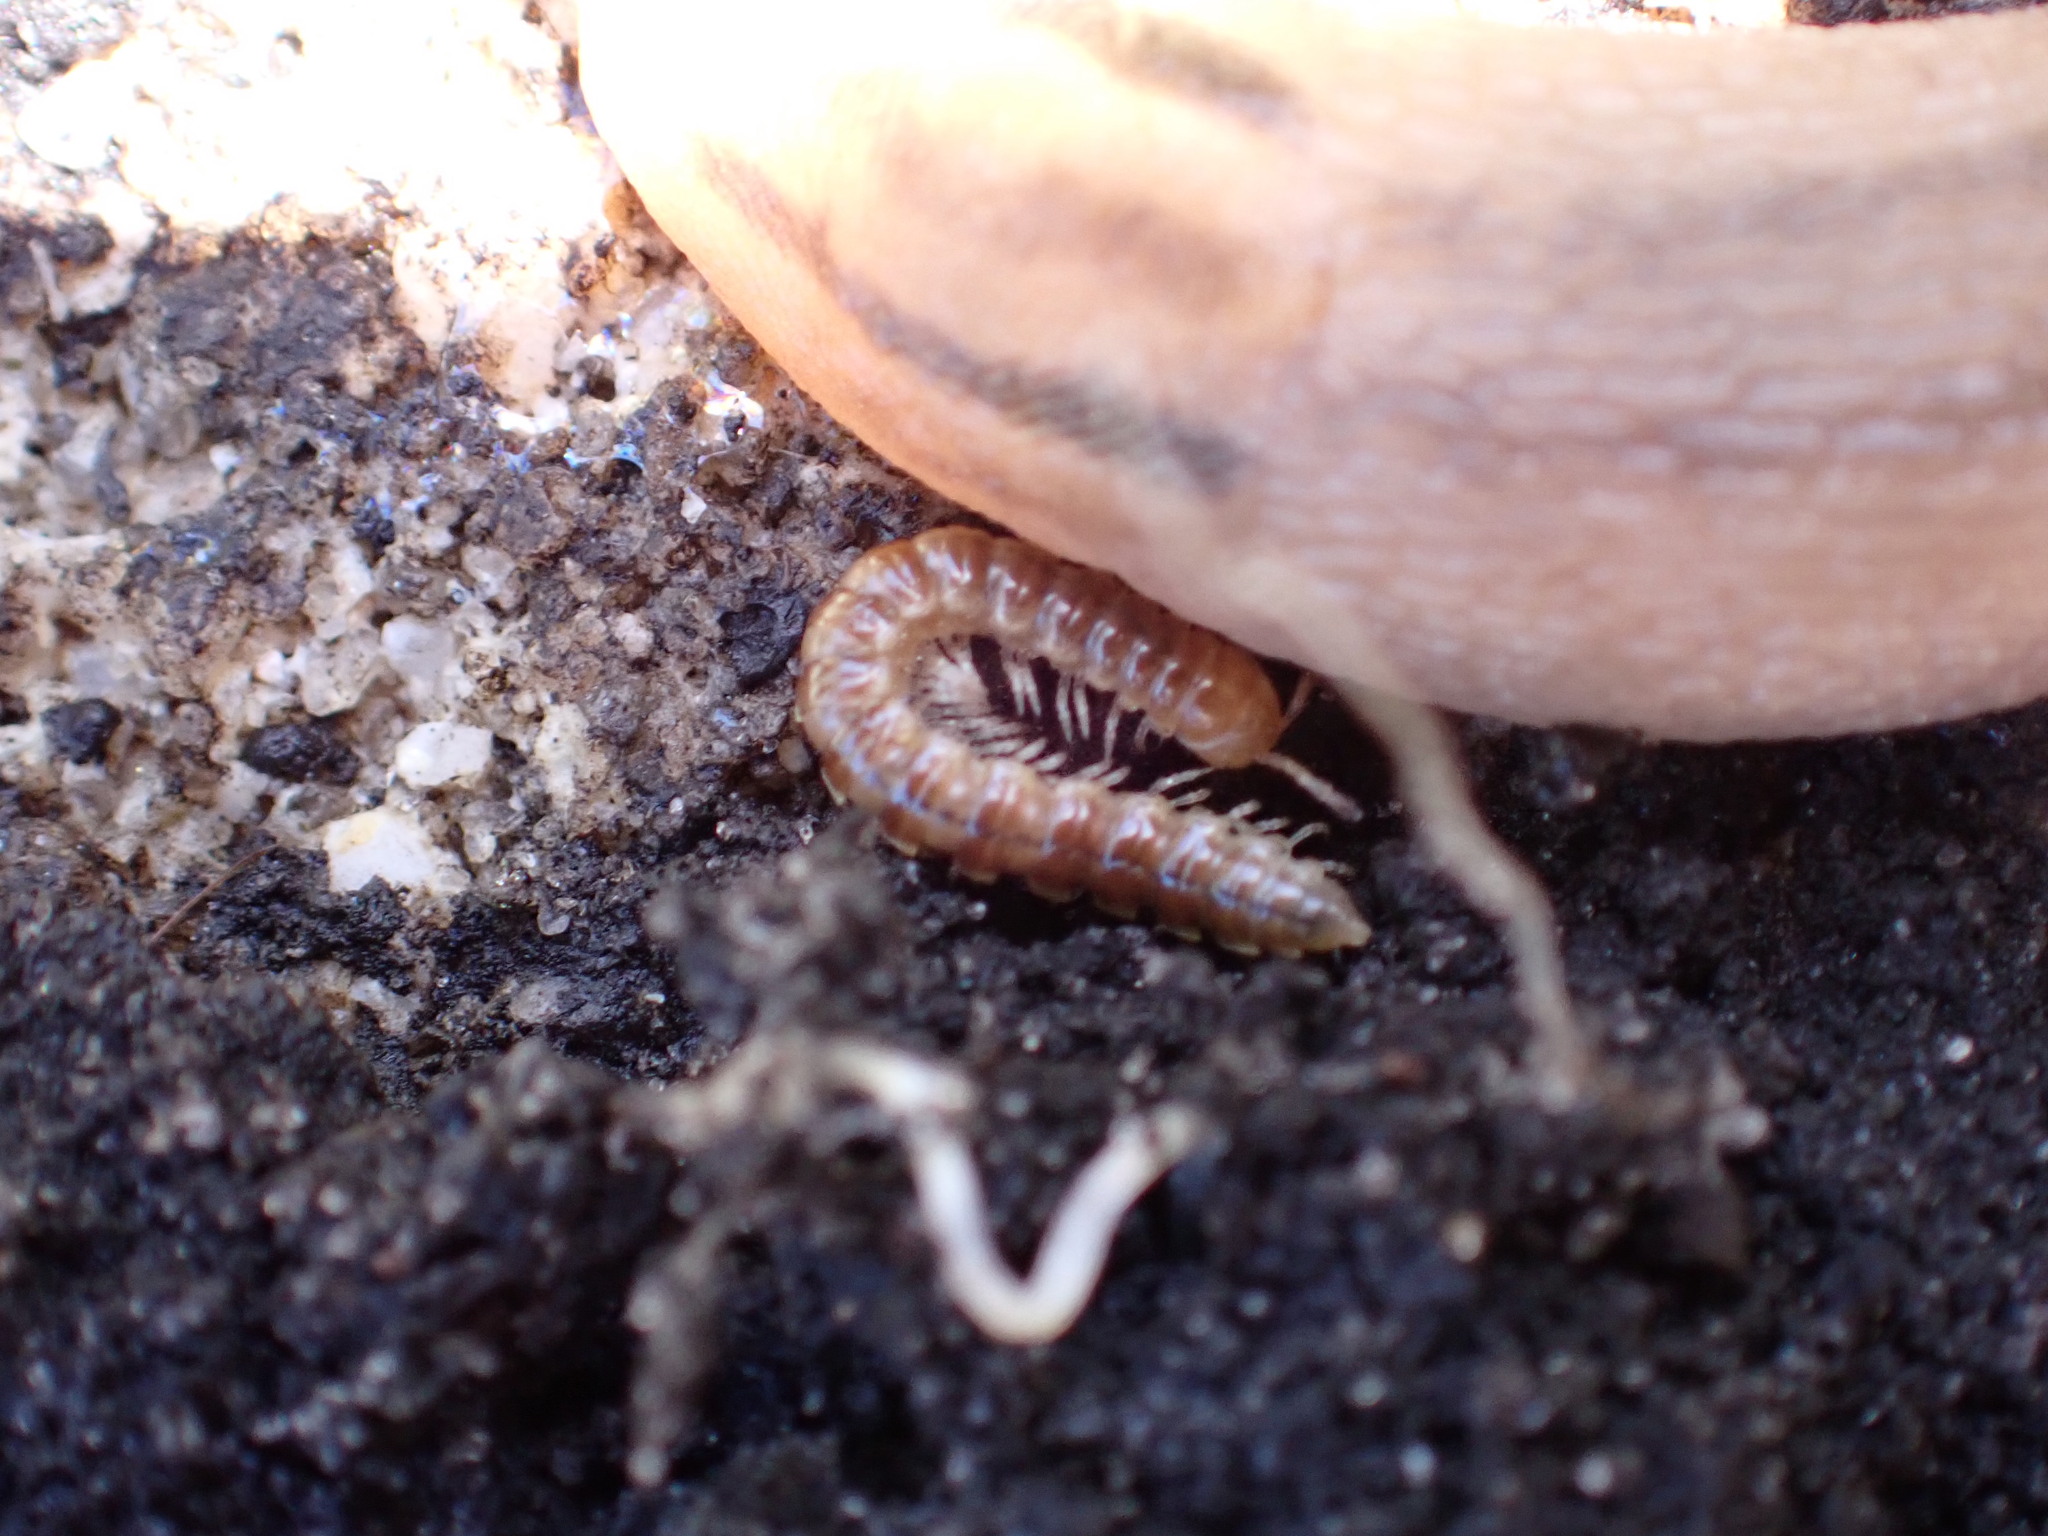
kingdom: Animalia
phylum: Arthropoda
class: Diplopoda
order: Polydesmida
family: Paradoxosomatidae
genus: Oxidus
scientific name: Oxidus gracilis
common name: Greenhouse millipede
